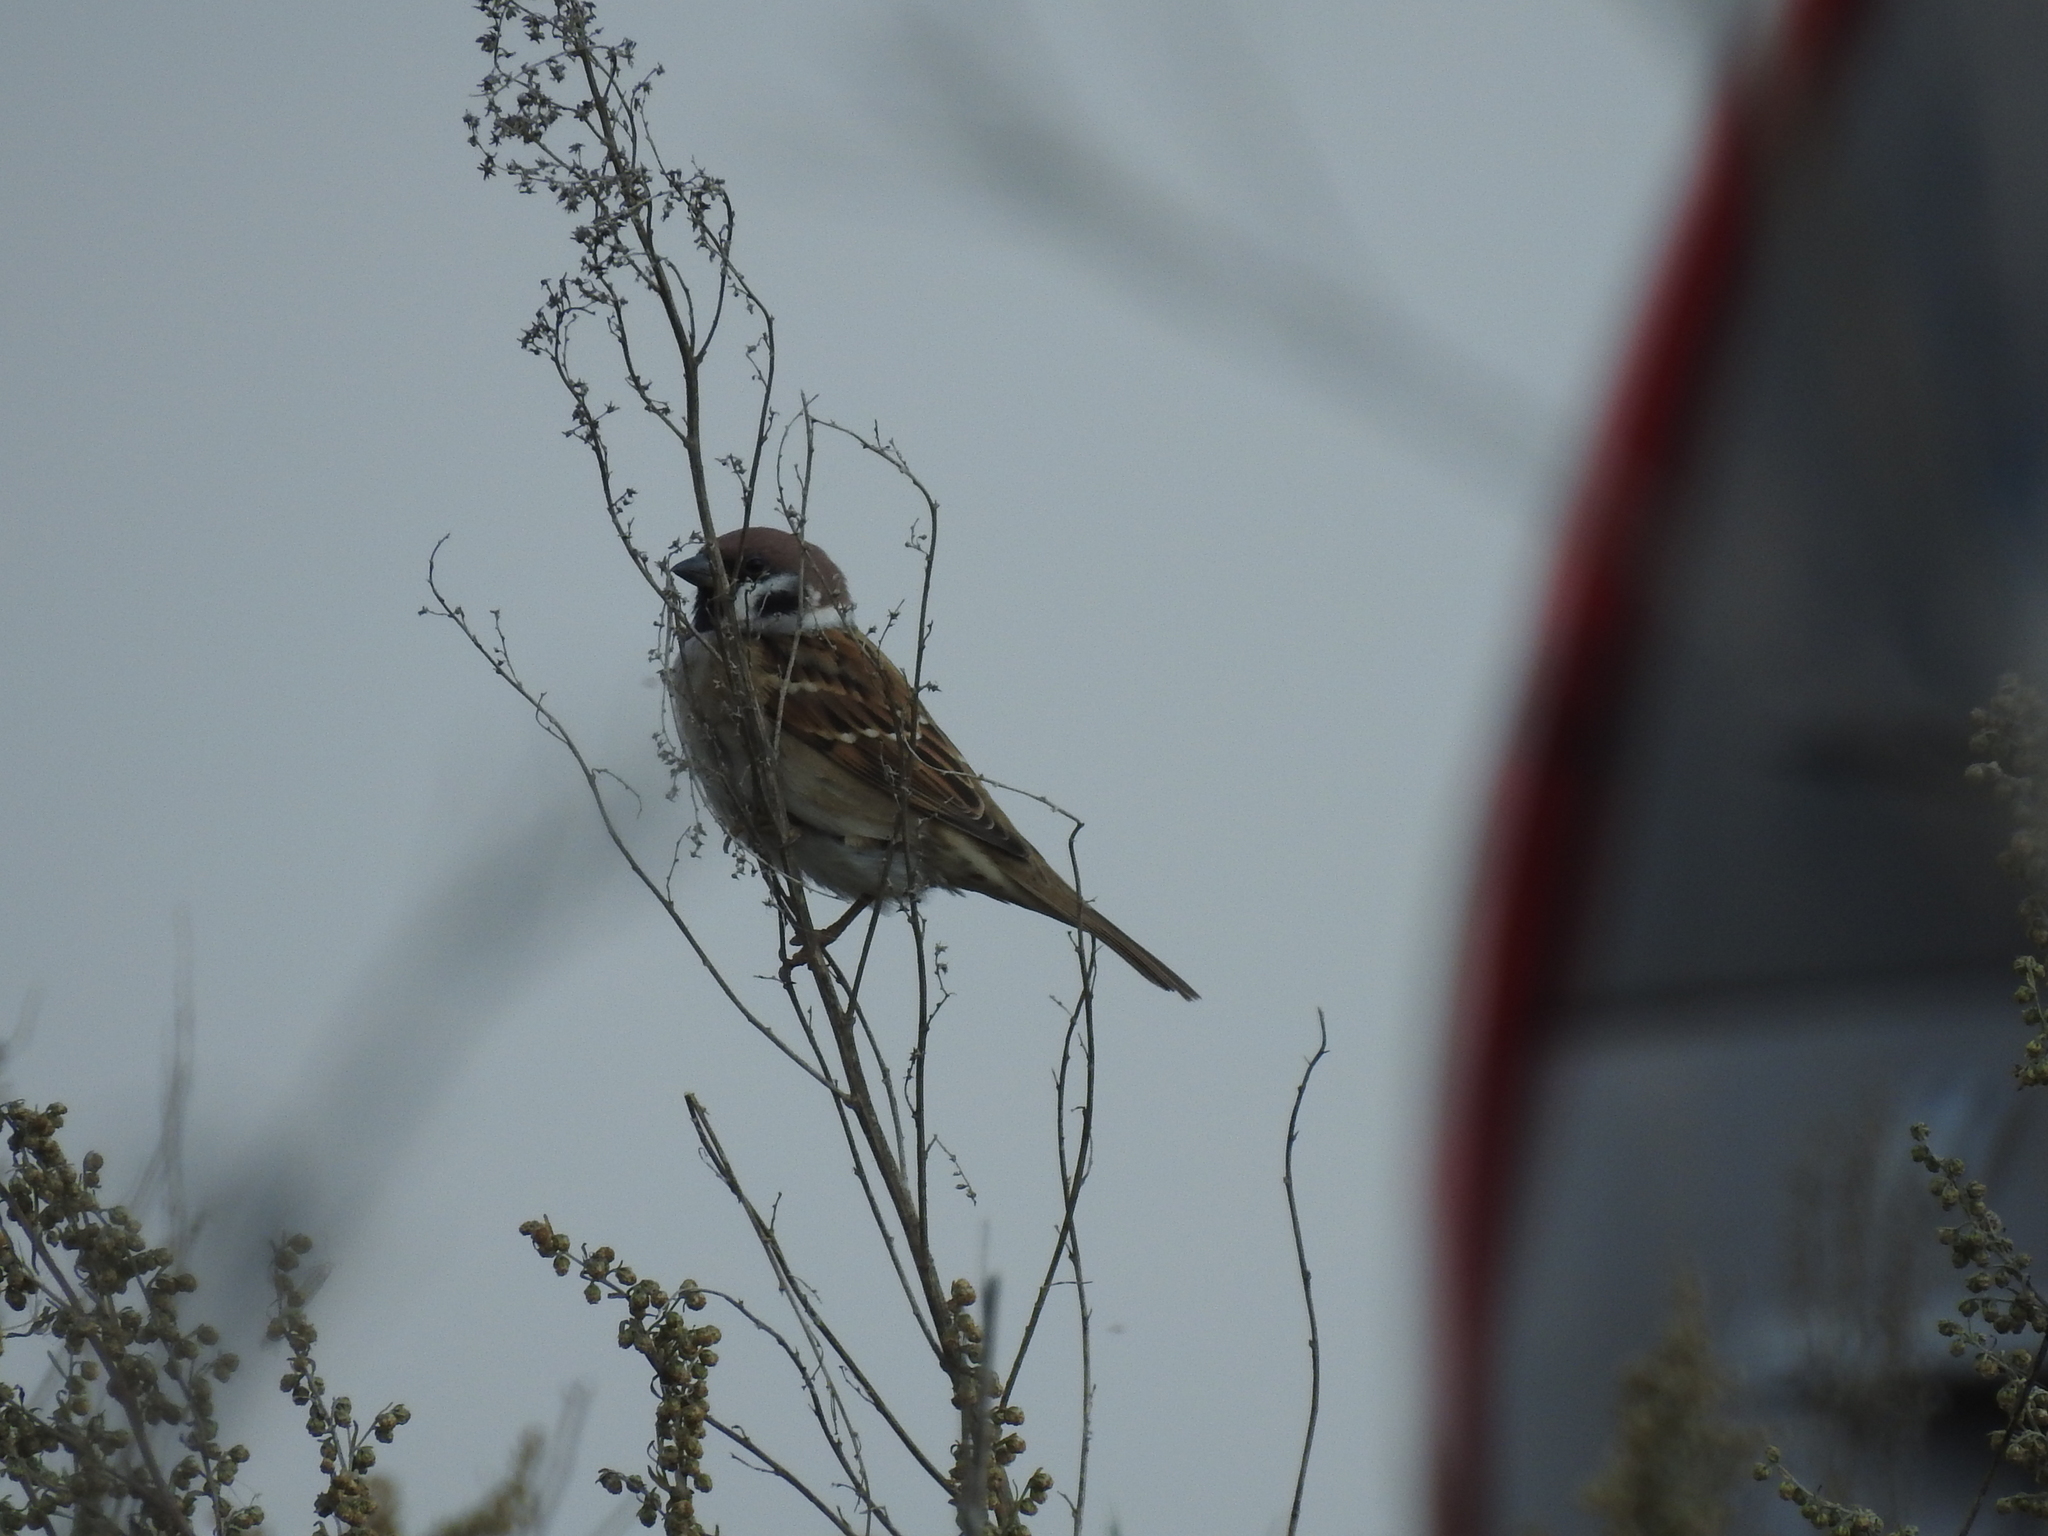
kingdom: Animalia
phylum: Chordata
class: Aves
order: Passeriformes
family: Passeridae
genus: Passer
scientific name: Passer montanus
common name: Eurasian tree sparrow
